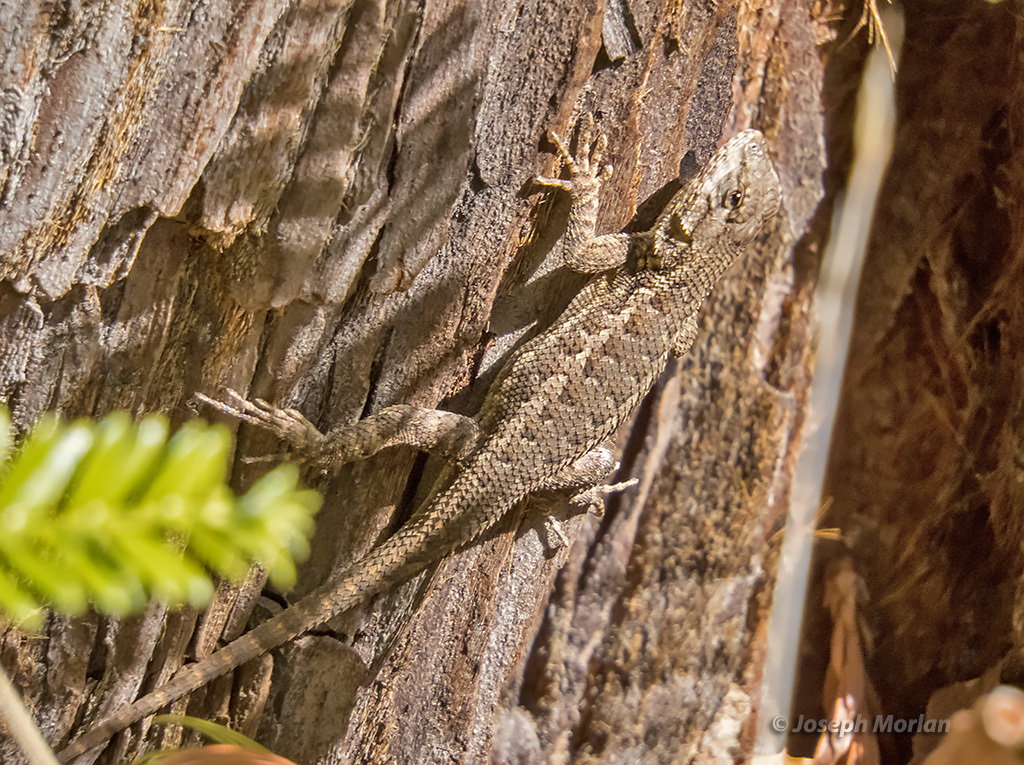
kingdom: Animalia
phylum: Chordata
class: Squamata
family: Phrynosomatidae
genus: Sceloporus
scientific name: Sceloporus occidentalis
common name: Western fence lizard
